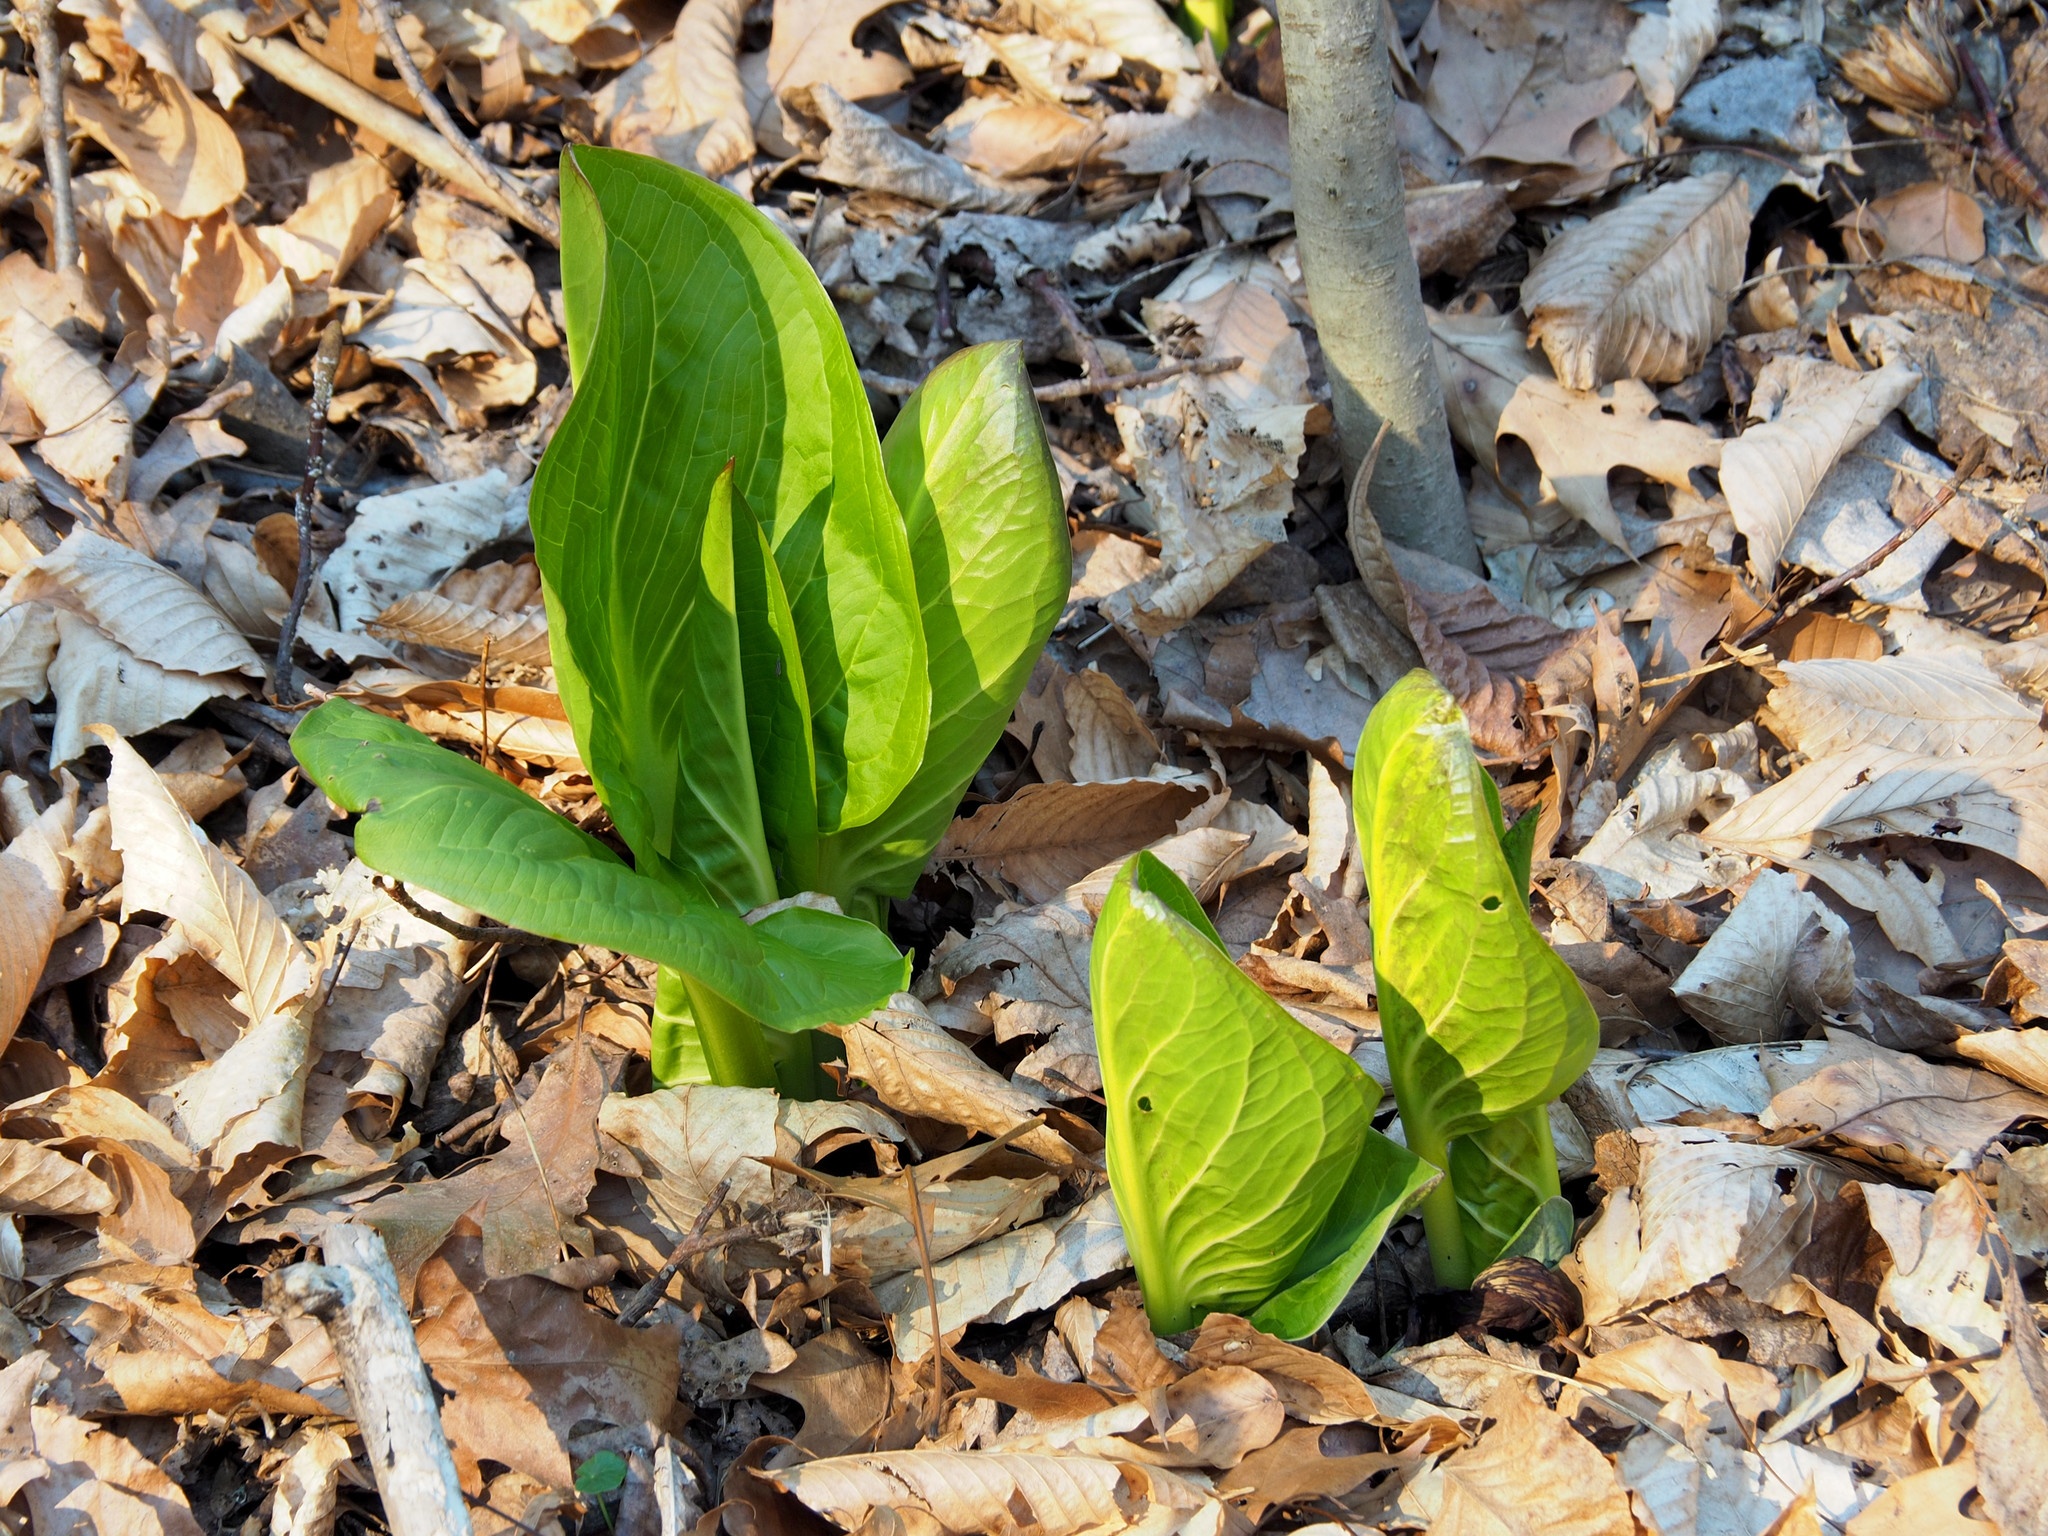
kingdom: Plantae
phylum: Tracheophyta
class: Liliopsida
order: Alismatales
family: Araceae
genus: Symplocarpus
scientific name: Symplocarpus foetidus
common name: Eastern skunk cabbage
